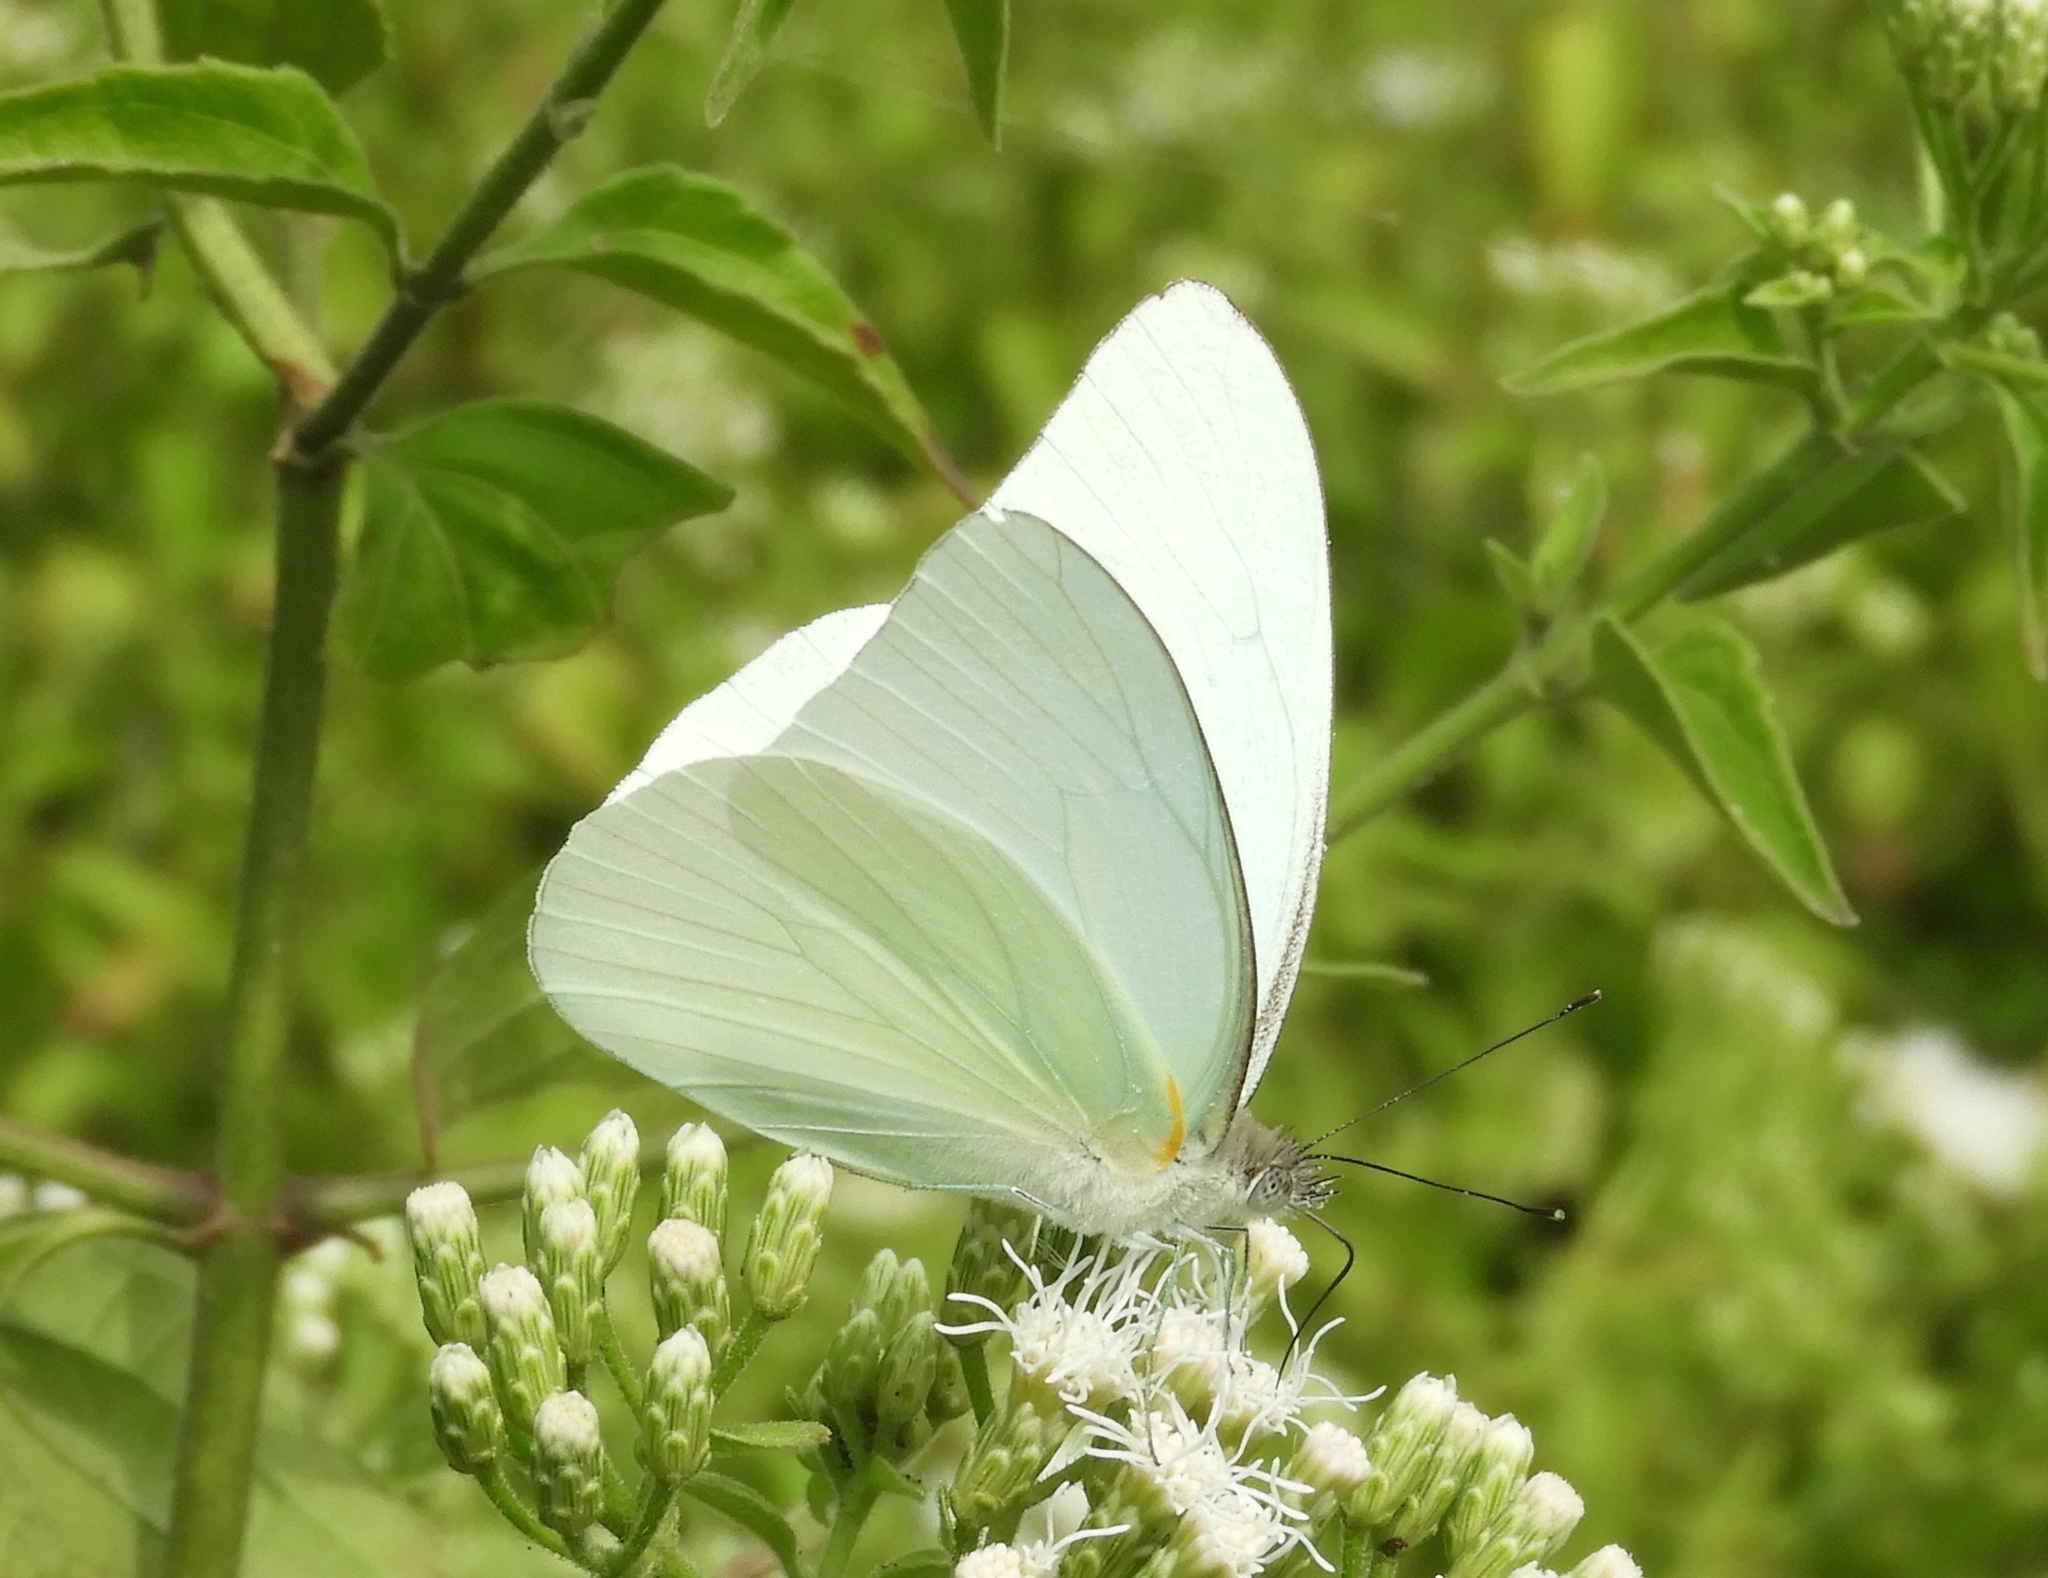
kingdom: Animalia
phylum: Arthropoda
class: Insecta
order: Lepidoptera
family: Pieridae
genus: Glutophrissa
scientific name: Glutophrissa drusilla
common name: Florida white
